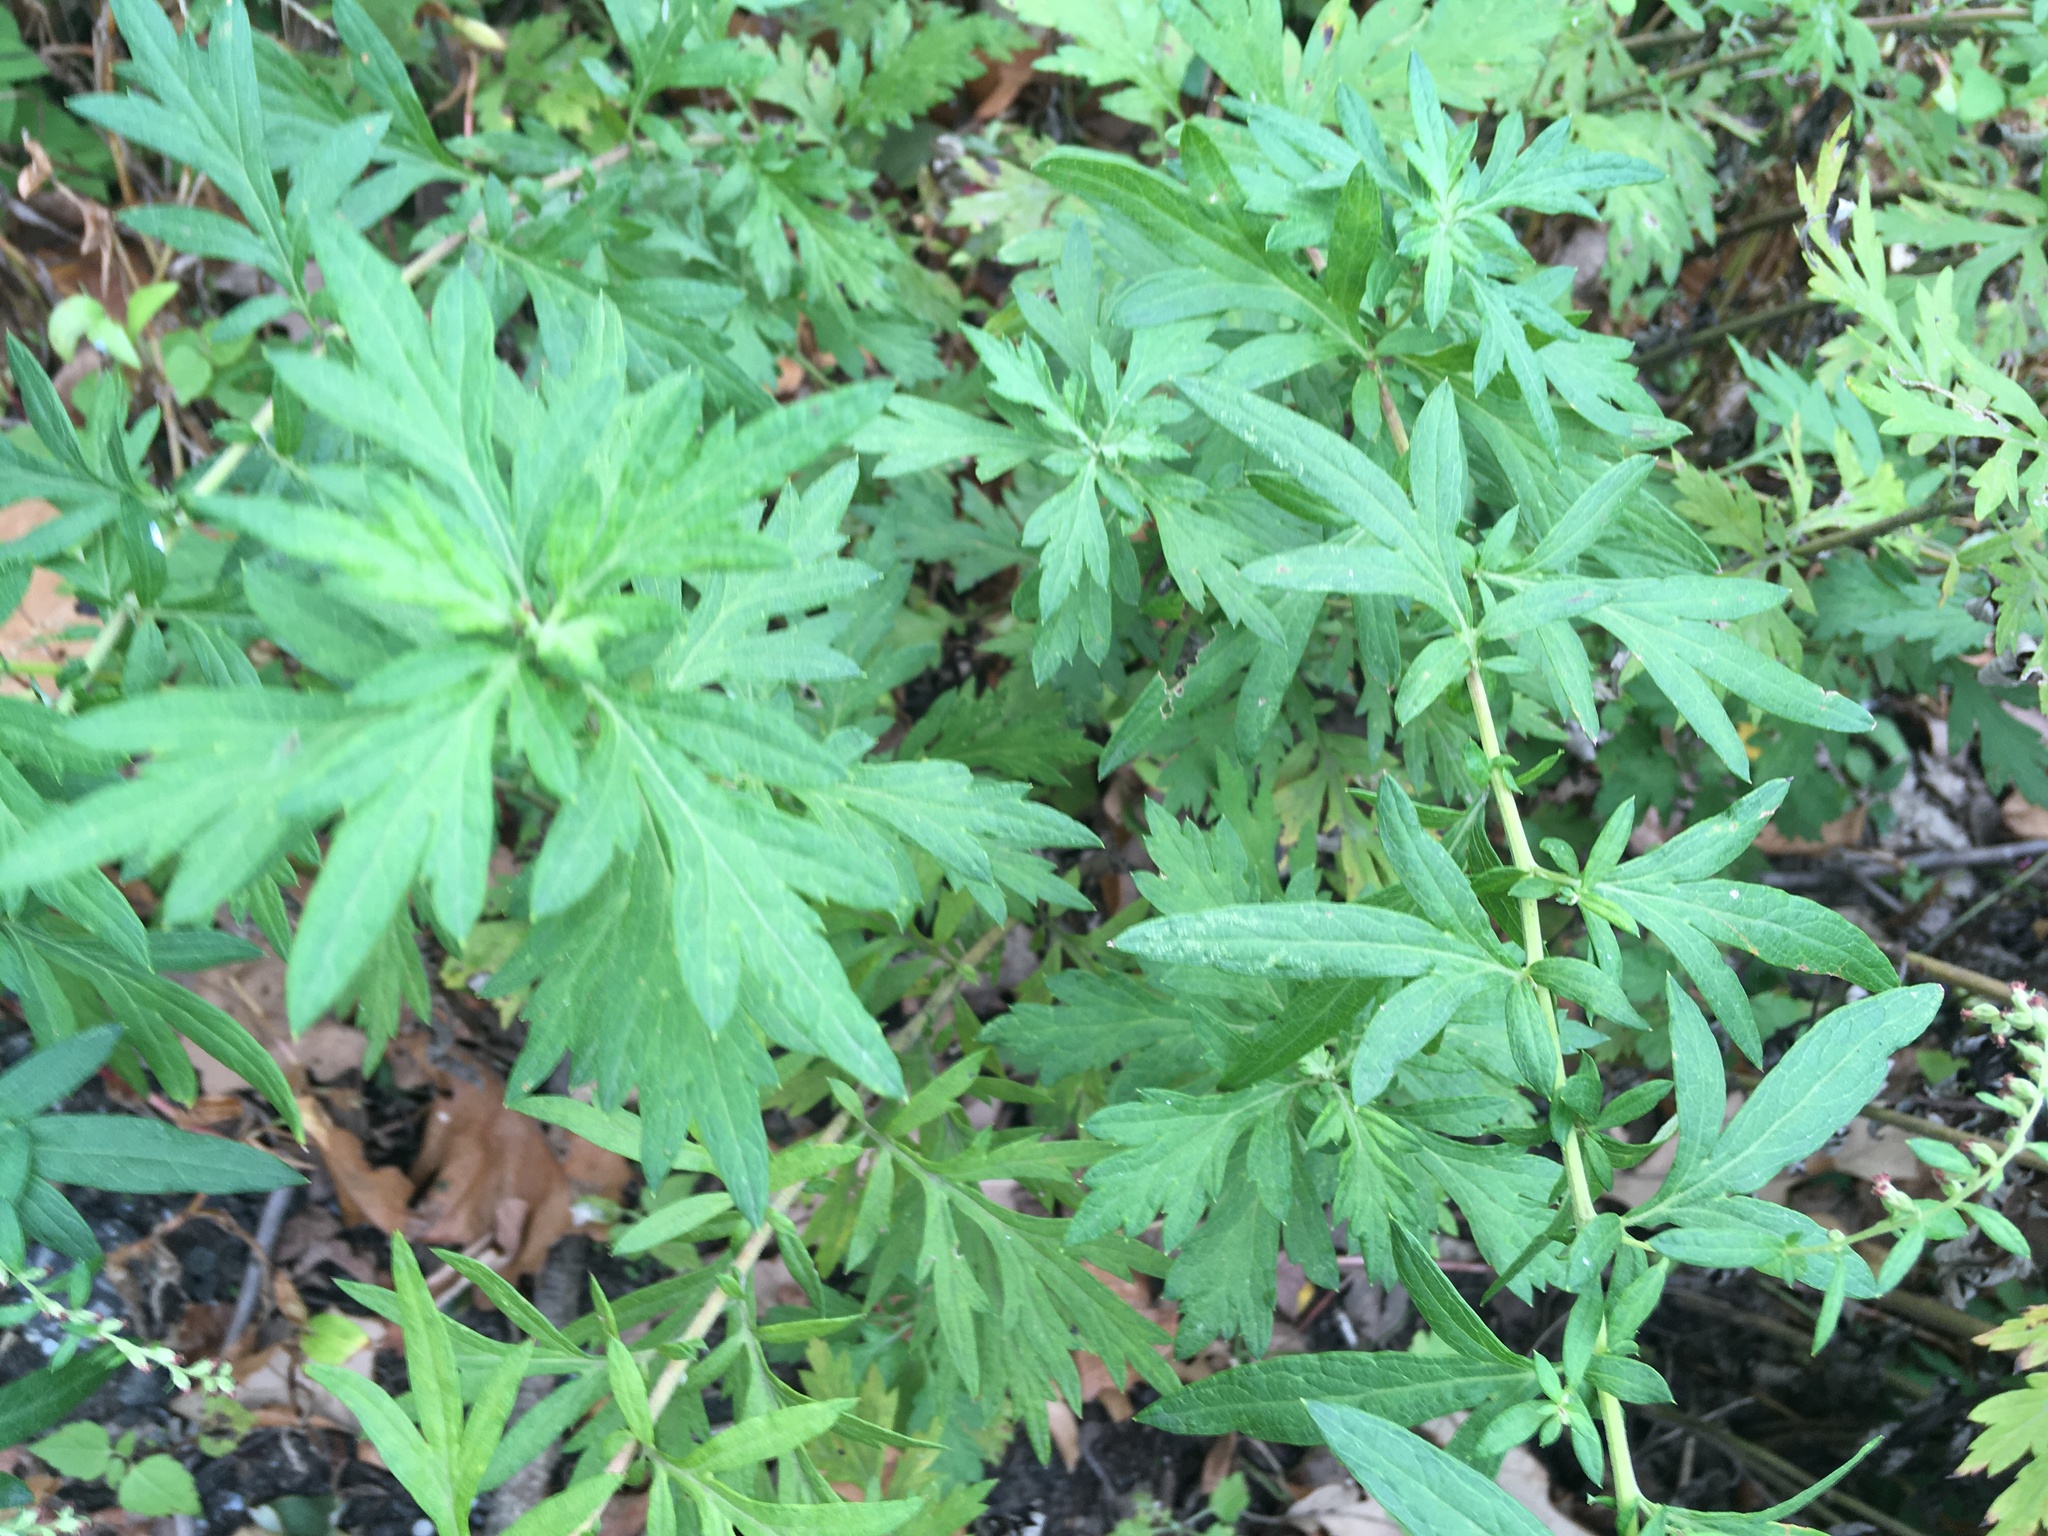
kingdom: Plantae
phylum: Tracheophyta
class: Magnoliopsida
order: Asterales
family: Asteraceae
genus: Artemisia
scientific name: Artemisia vulgaris
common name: Mugwort
